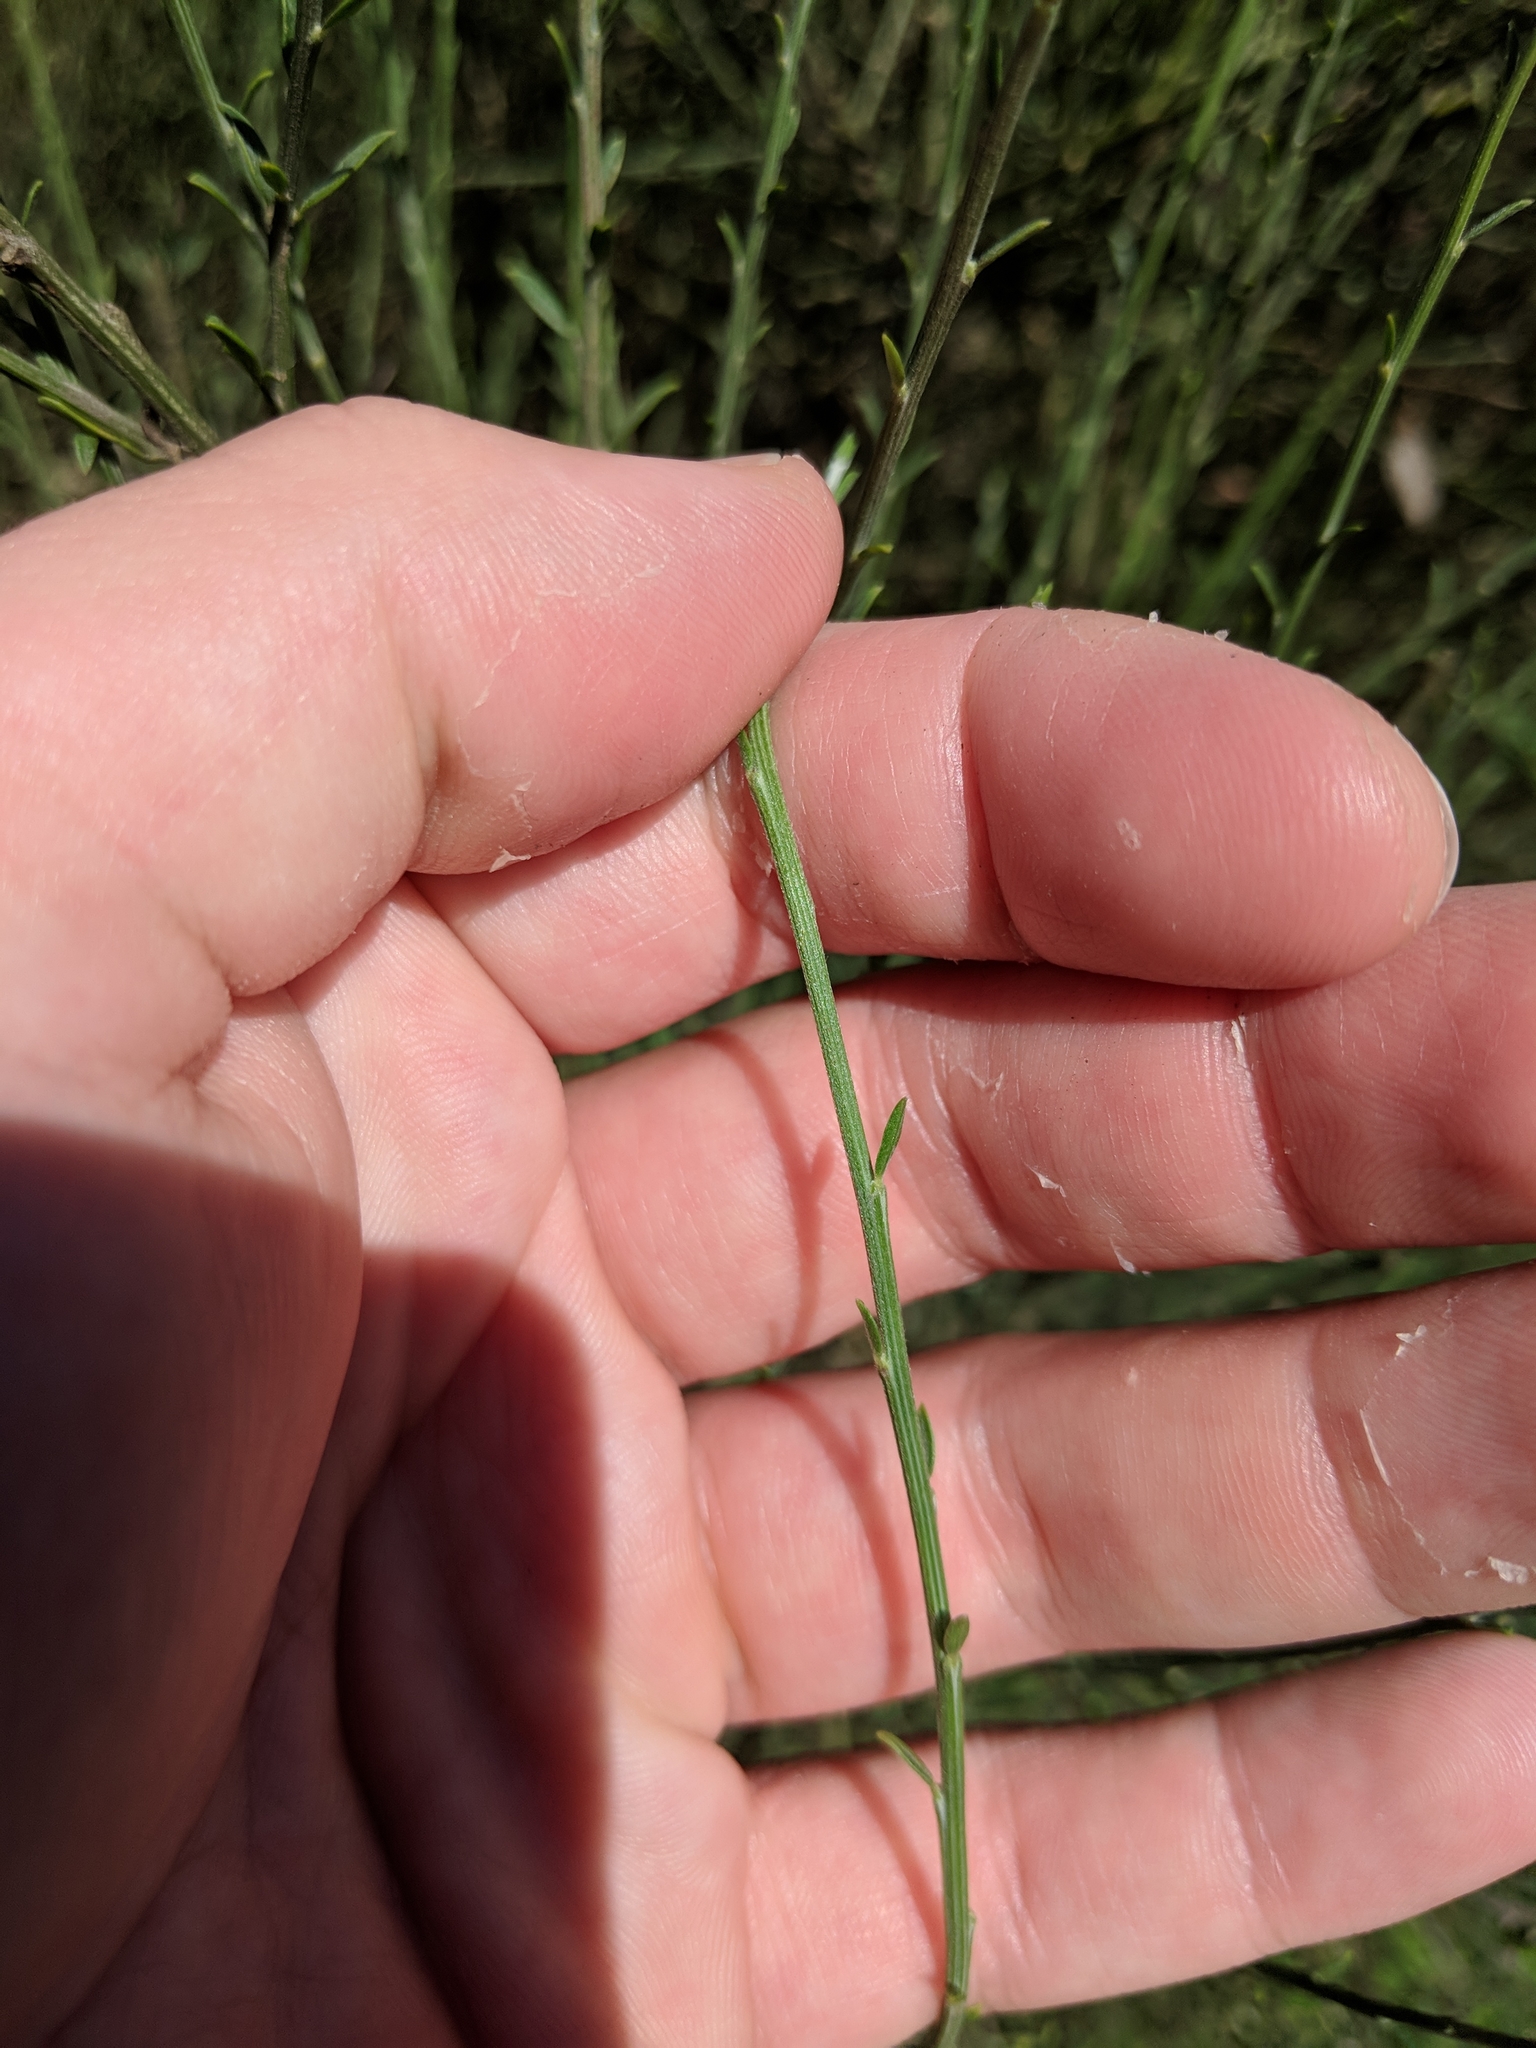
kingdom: Plantae
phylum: Tracheophyta
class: Magnoliopsida
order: Santalales
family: Santalaceae
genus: Osyris
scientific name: Osyris alba
